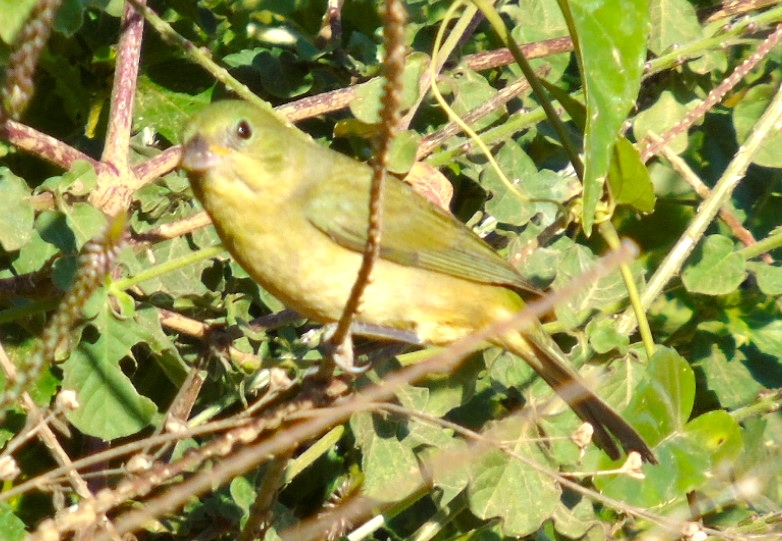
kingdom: Animalia
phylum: Chordata
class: Aves
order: Passeriformes
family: Cardinalidae
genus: Passerina
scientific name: Passerina ciris
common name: Painted bunting
